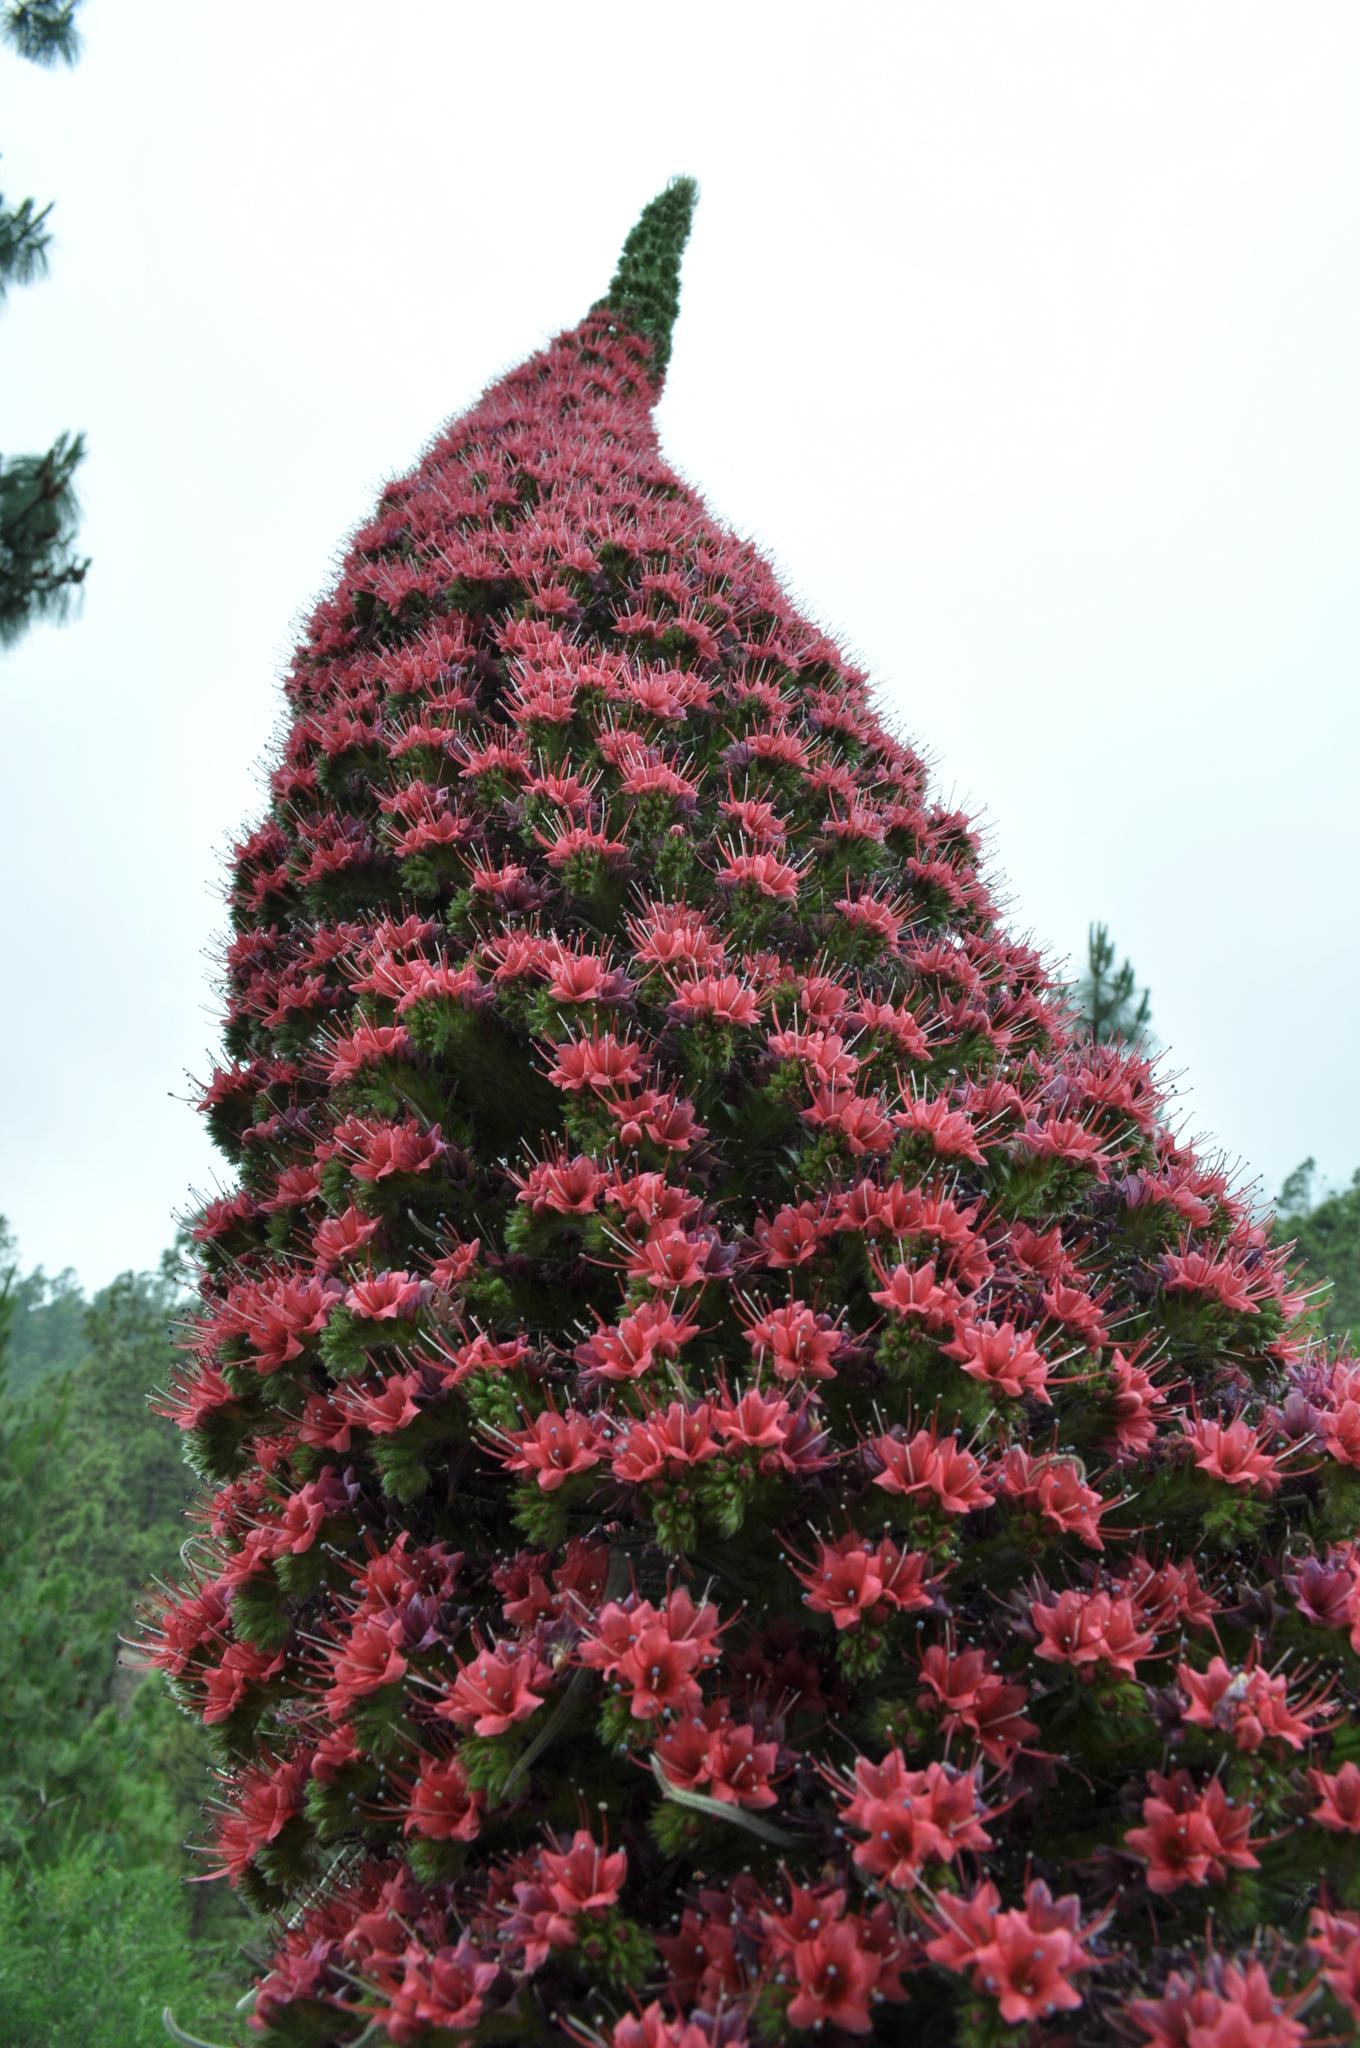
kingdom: Plantae
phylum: Tracheophyta
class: Magnoliopsida
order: Boraginales
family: Boraginaceae
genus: Echium
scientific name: Echium wildpretii
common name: Tower-of-jewels
